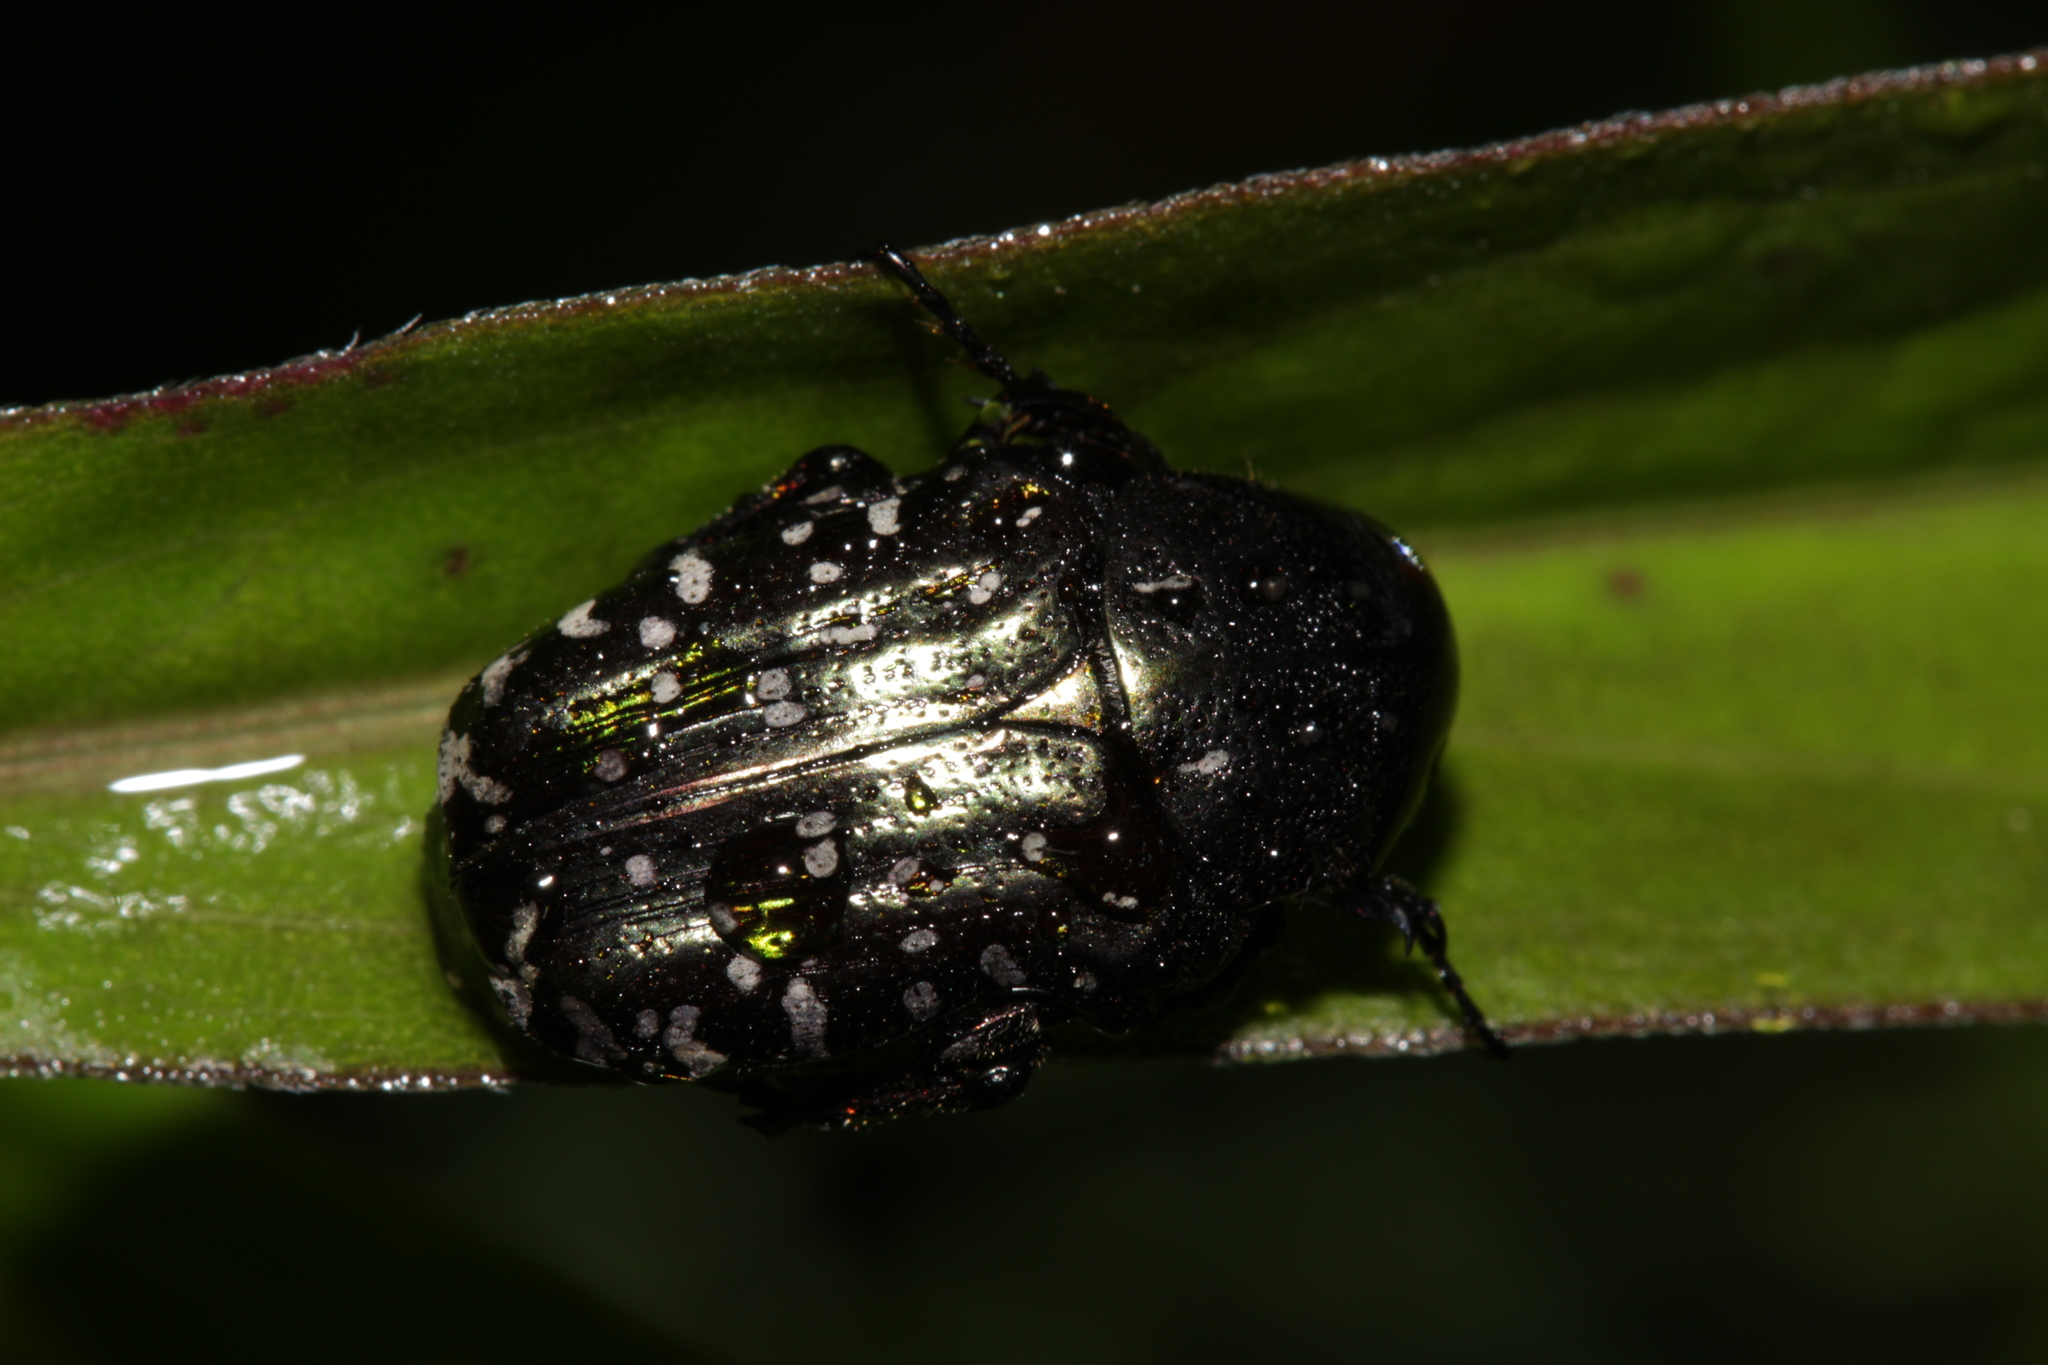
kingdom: Animalia
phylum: Arthropoda
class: Insecta
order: Coleoptera
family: Scarabaeidae
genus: Oxythyrea
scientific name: Oxythyrea funesta
